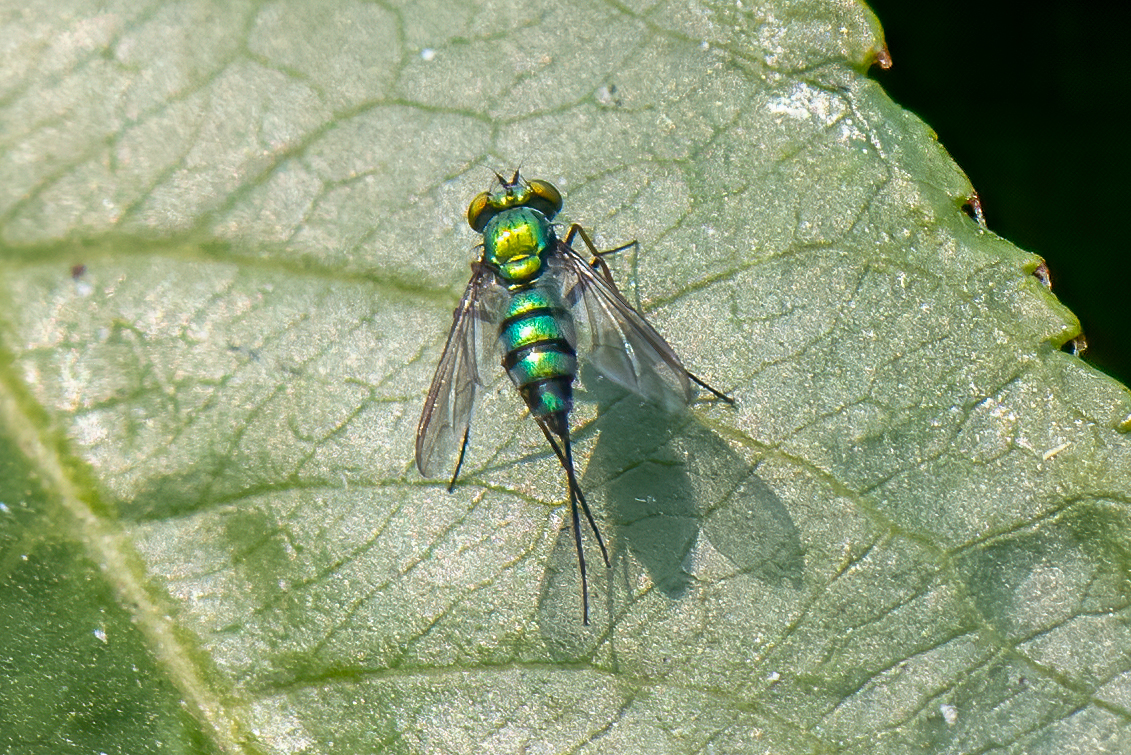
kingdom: Animalia
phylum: Arthropoda
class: Insecta
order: Diptera
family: Dolichopodidae
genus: Condylostylus
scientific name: Condylostylus longicornis
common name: Long-legged fly
